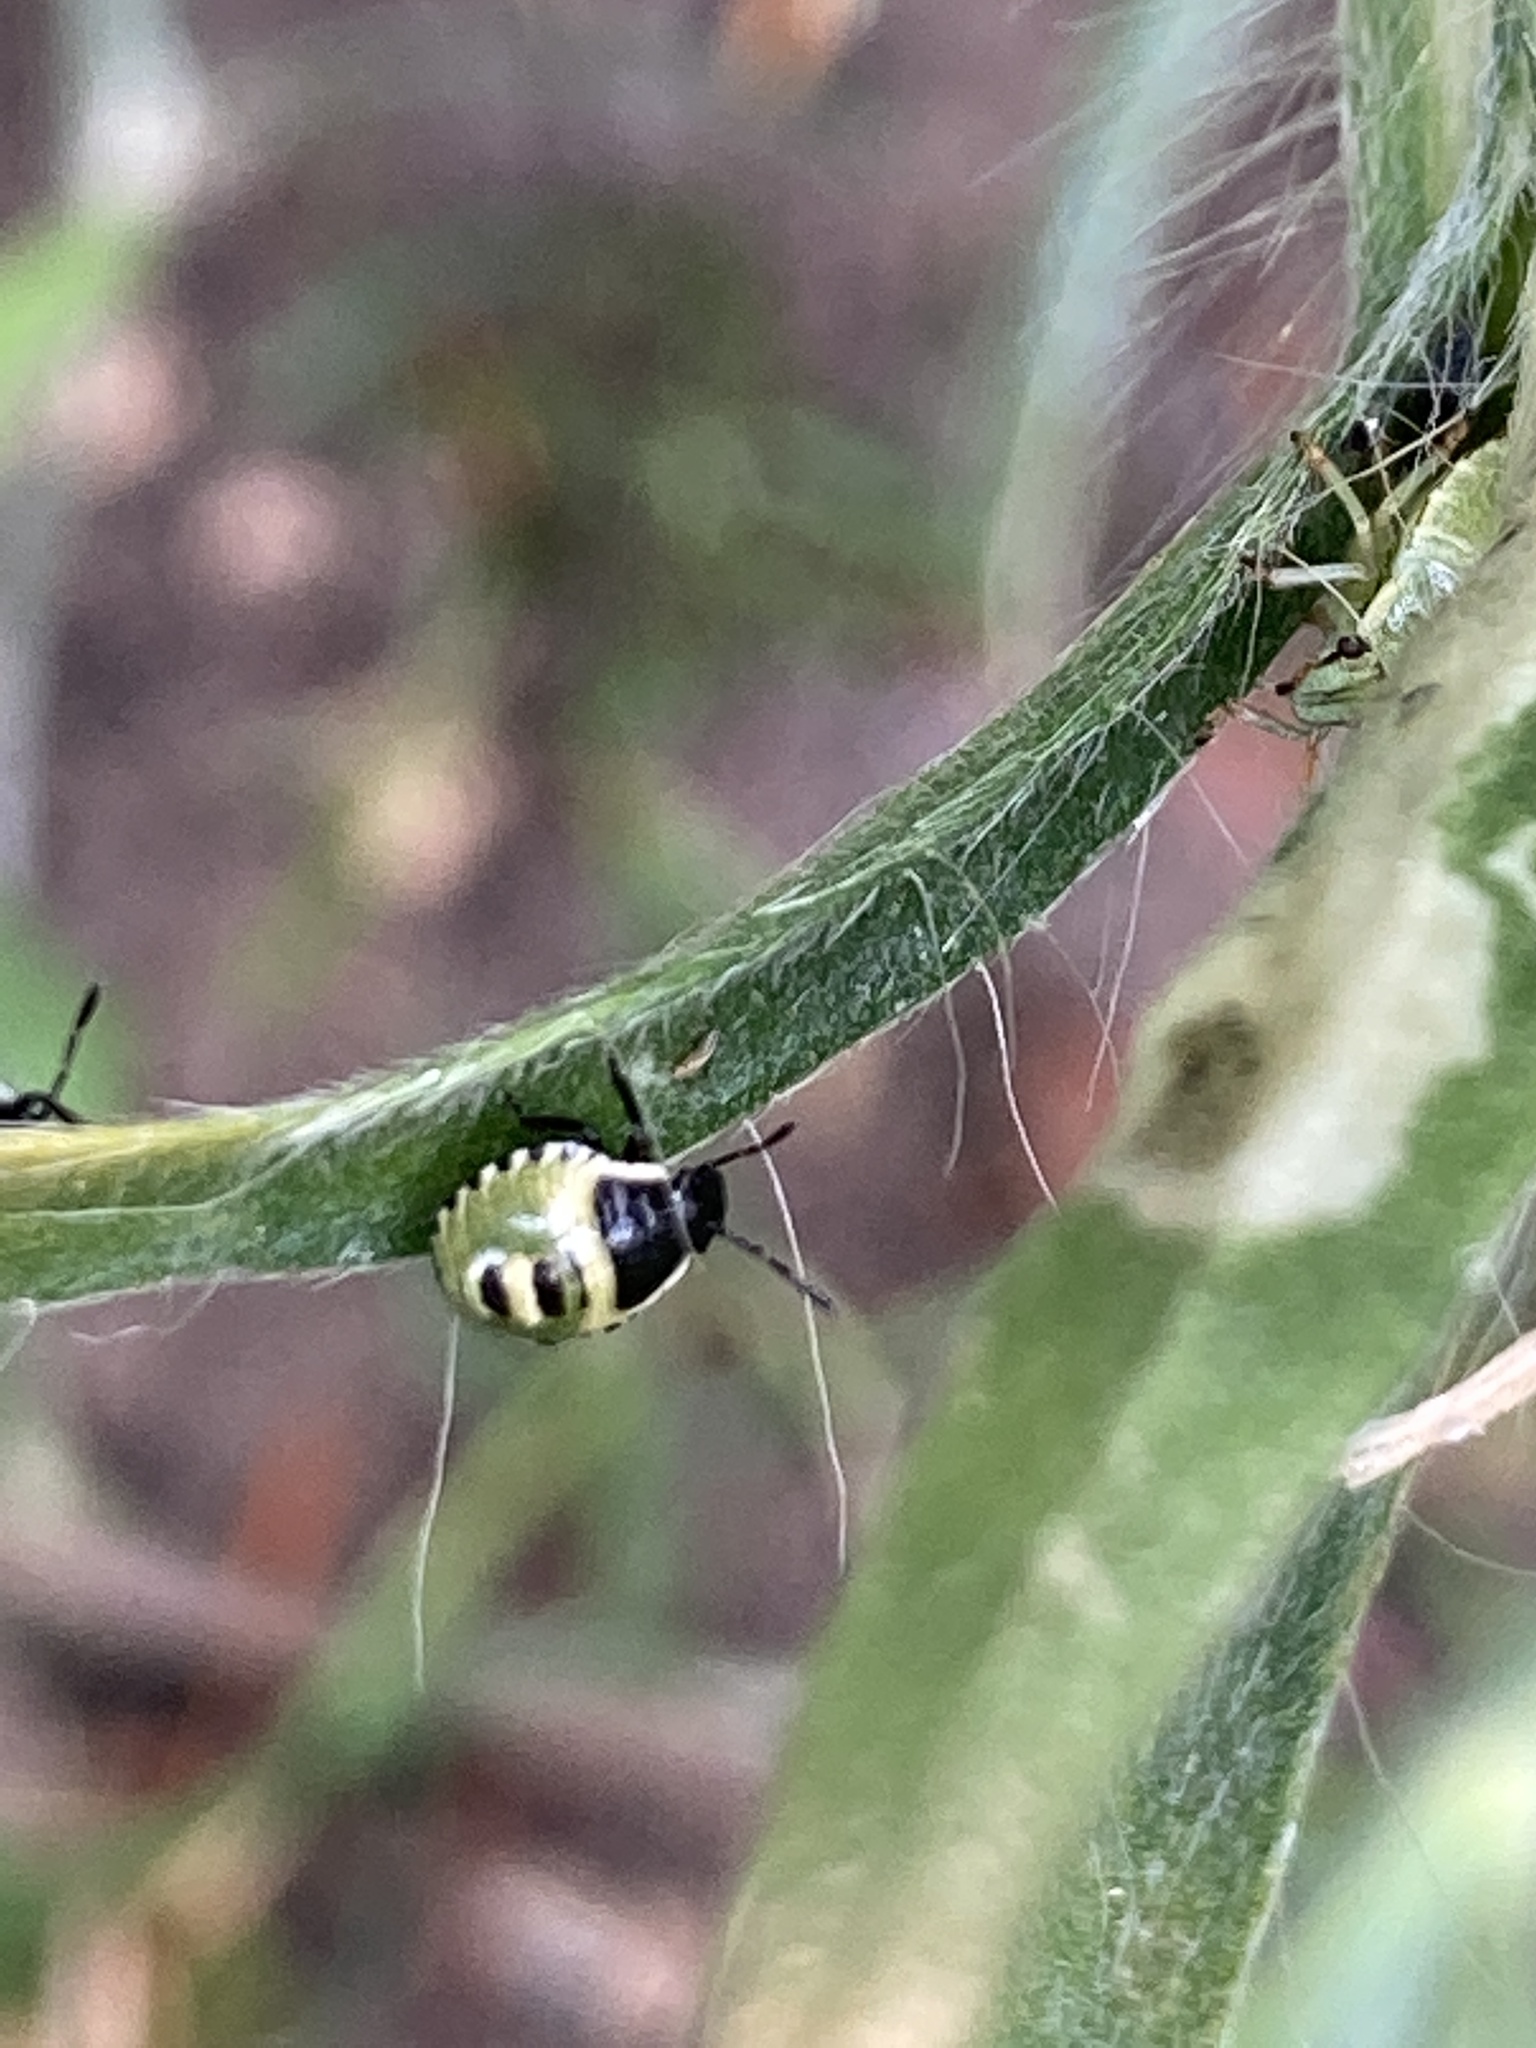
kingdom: Animalia
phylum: Arthropoda
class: Insecta
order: Hemiptera
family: Pentatomidae
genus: Palomena
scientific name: Palomena prasina
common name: Green shieldbug
